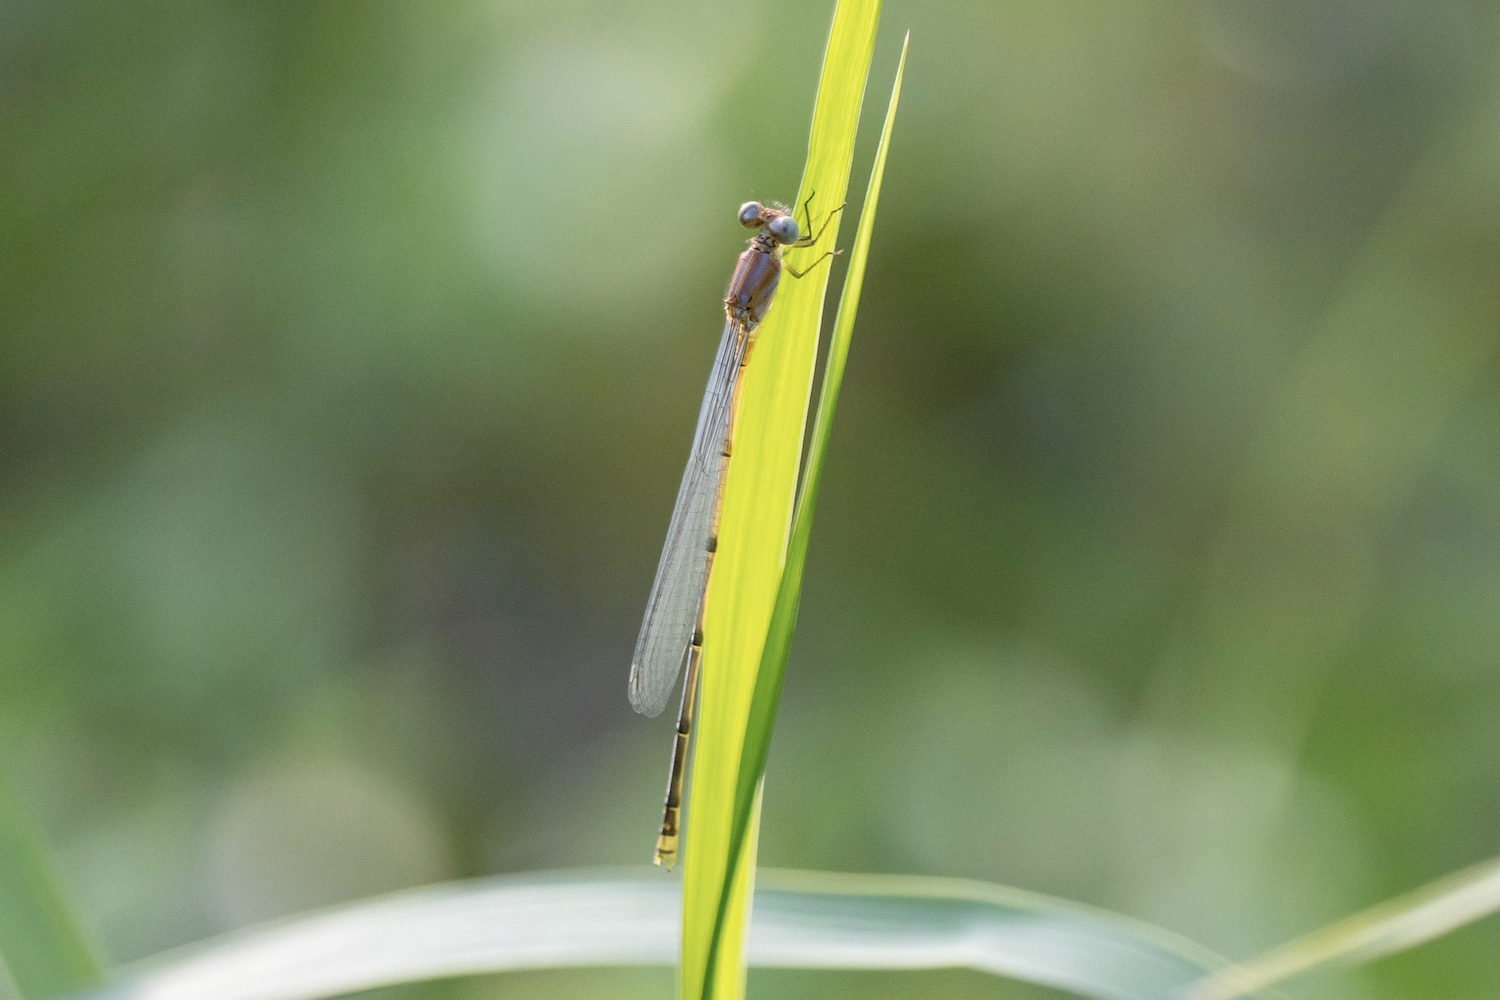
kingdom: Animalia
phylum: Arthropoda
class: Insecta
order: Odonata
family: Coenagrionidae
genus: Pseudagrion
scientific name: Pseudagrion pilidorsum
